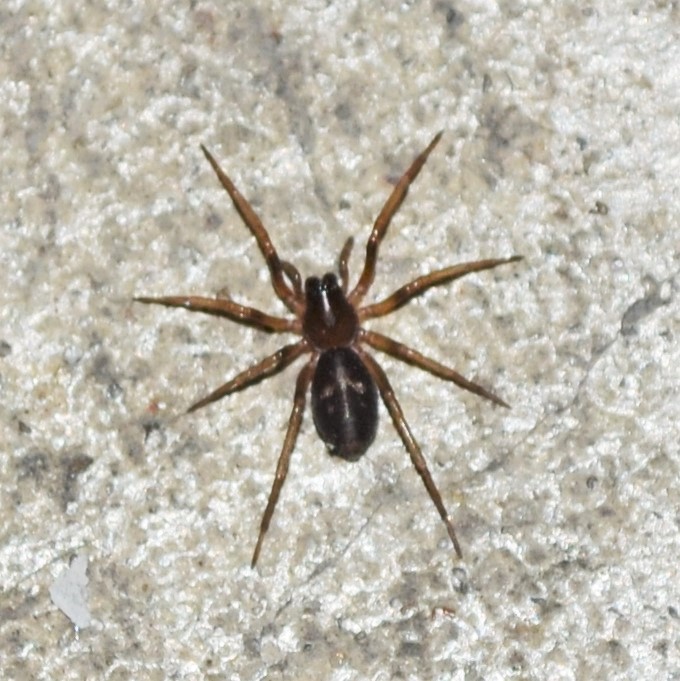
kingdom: Animalia
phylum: Arthropoda
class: Arachnida
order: Araneae
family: Corinnidae
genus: Falconina
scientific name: Falconina gracilis
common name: Antmimic spider
